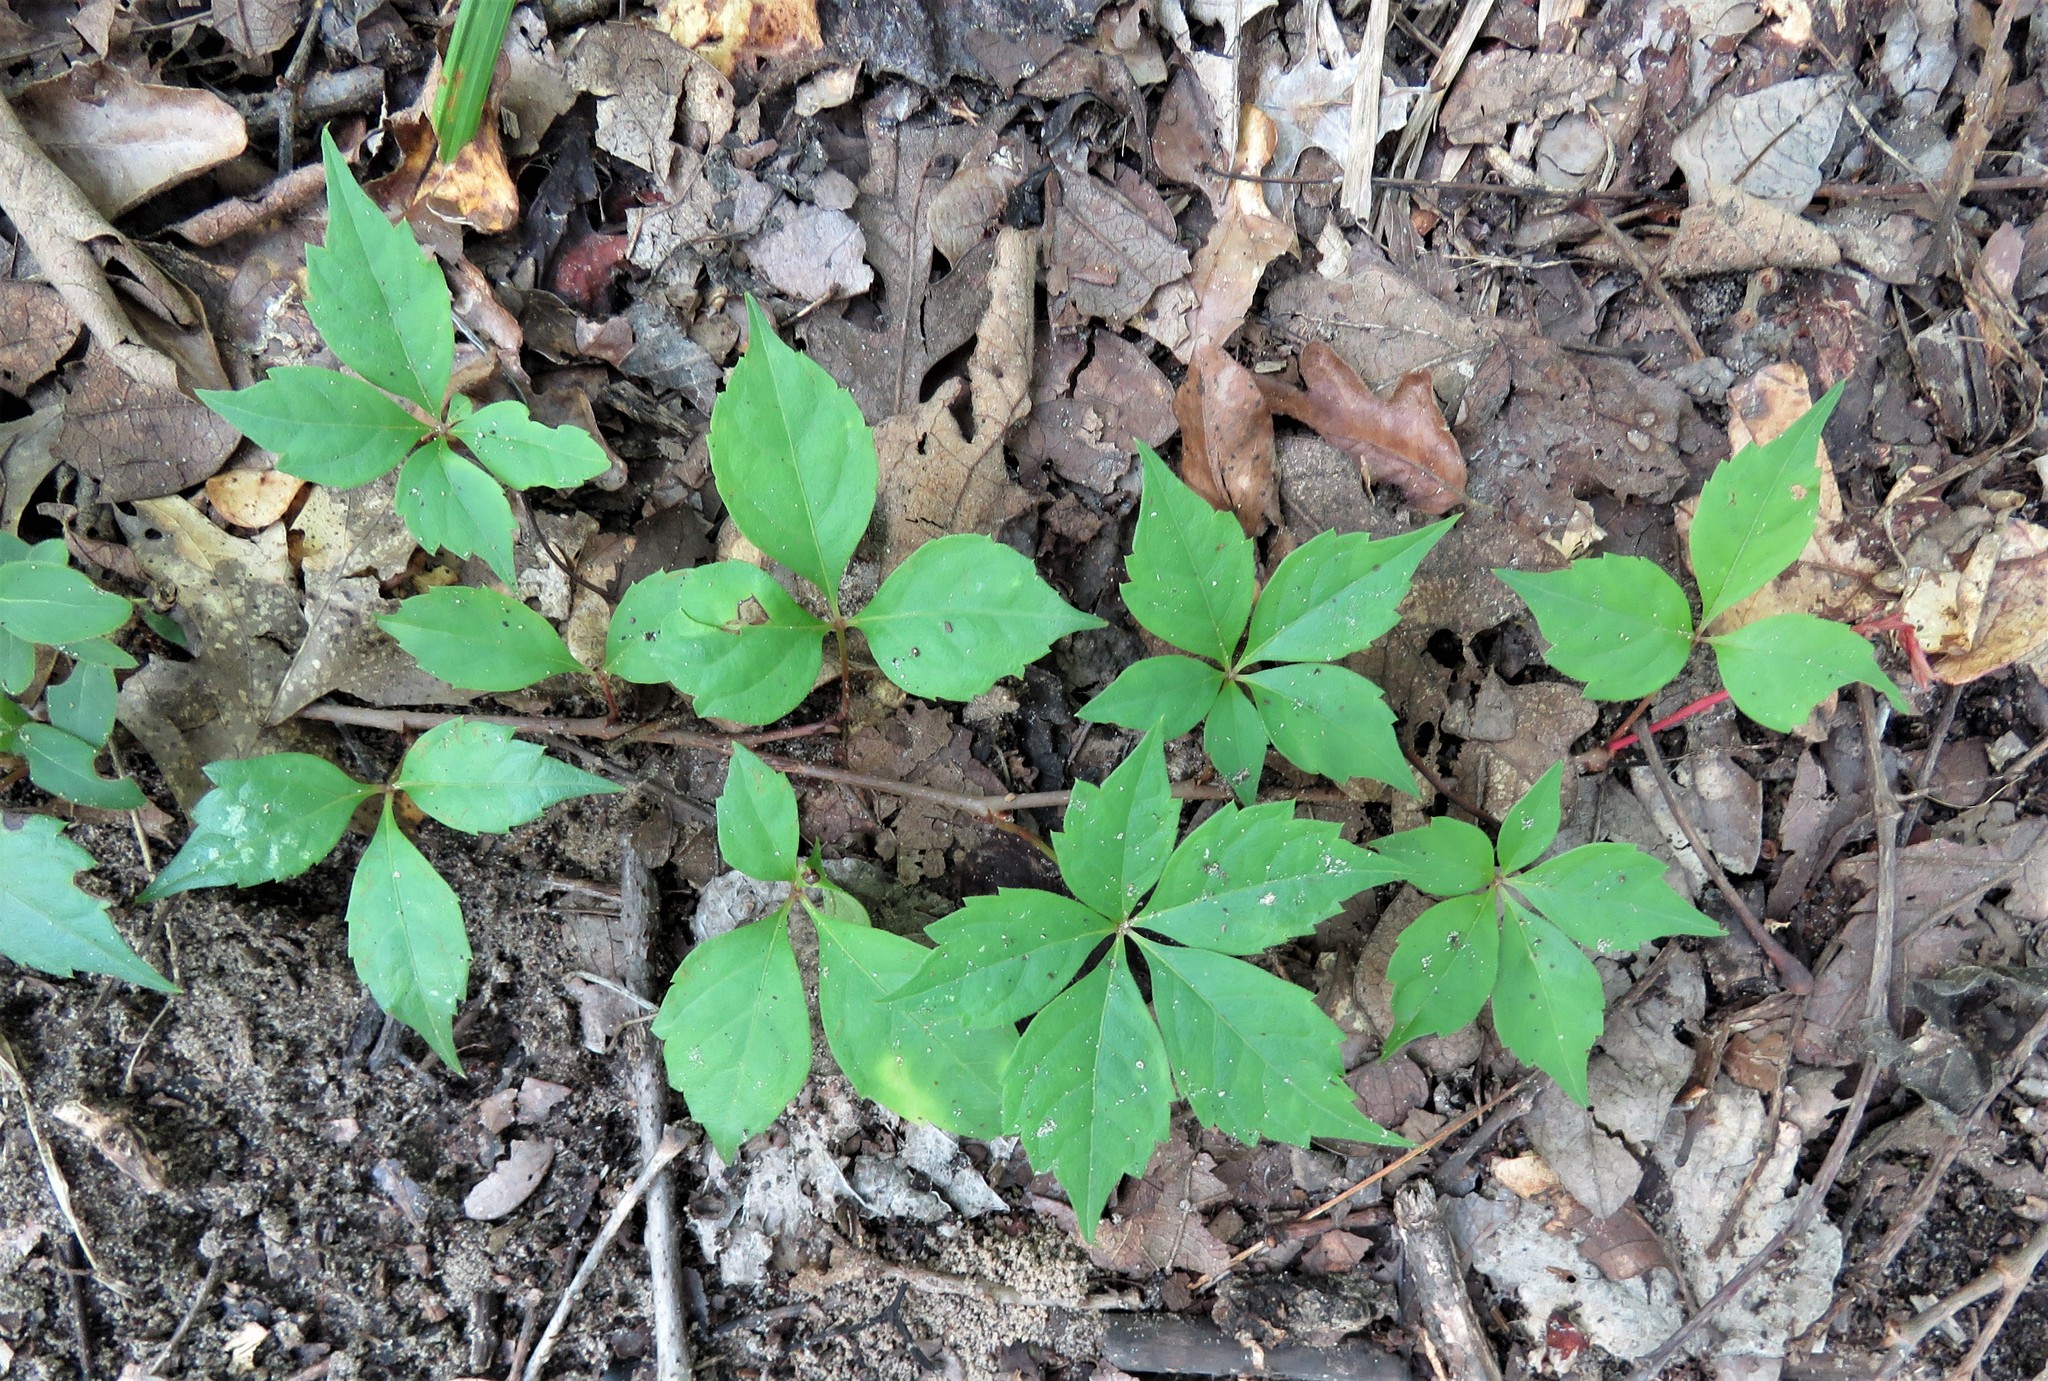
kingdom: Plantae
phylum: Tracheophyta
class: Magnoliopsida
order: Vitales
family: Vitaceae
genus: Parthenocissus
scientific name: Parthenocissus quinquefolia
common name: Virginia-creeper
